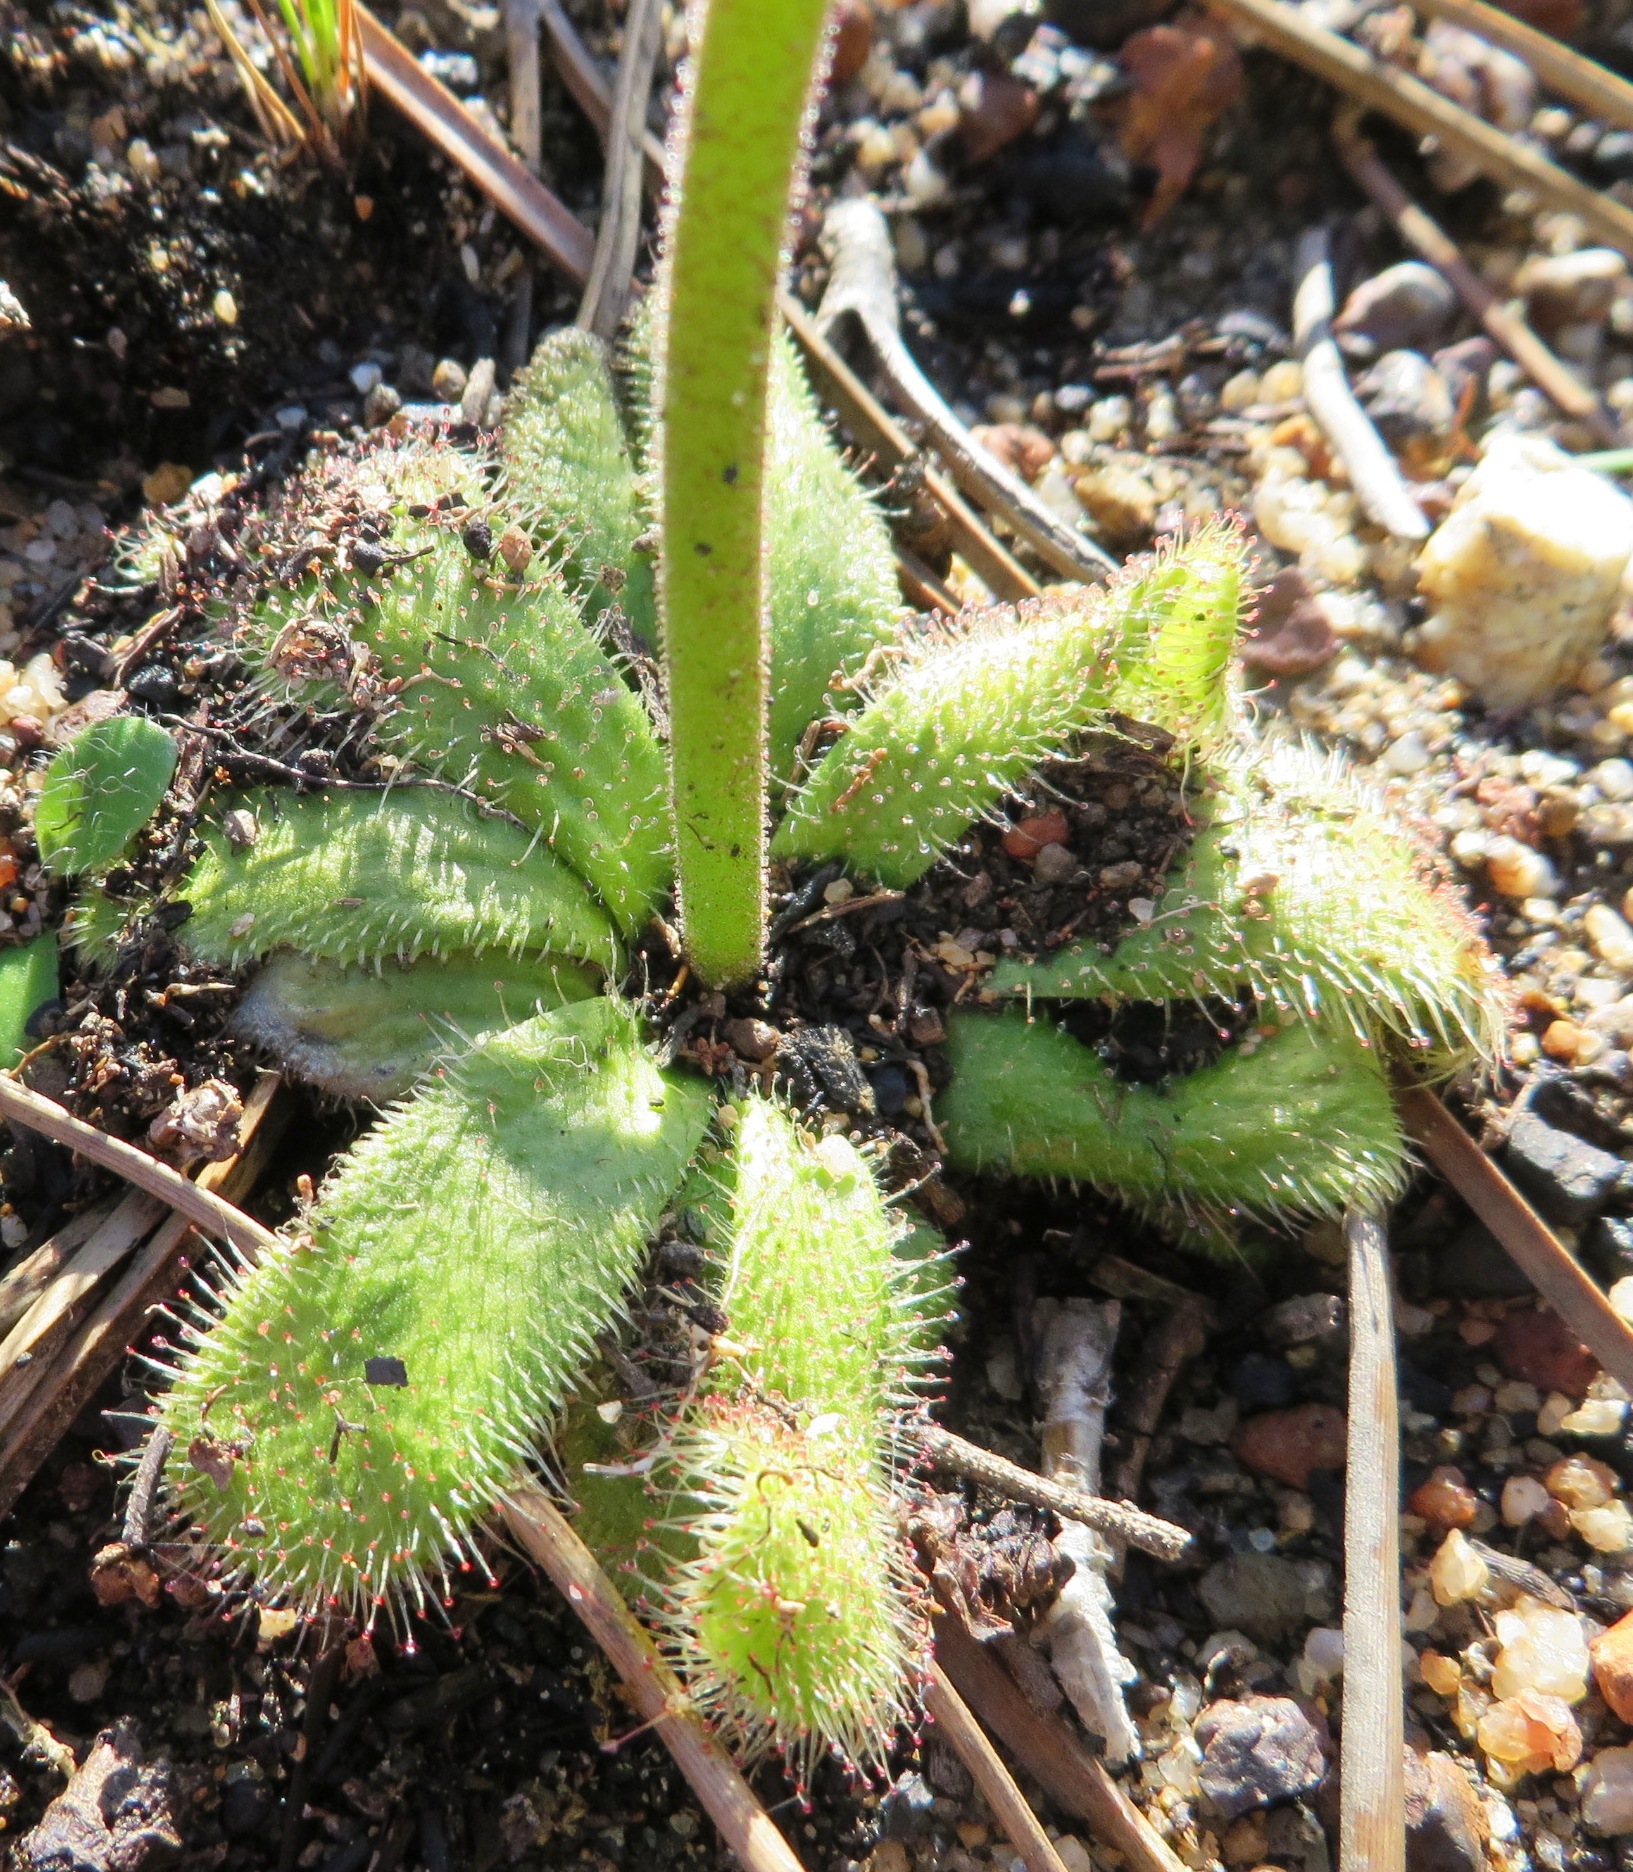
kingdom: Plantae
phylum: Tracheophyta
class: Magnoliopsida
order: Caryophyllales
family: Droseraceae
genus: Drosera
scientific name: Drosera pauciflora
